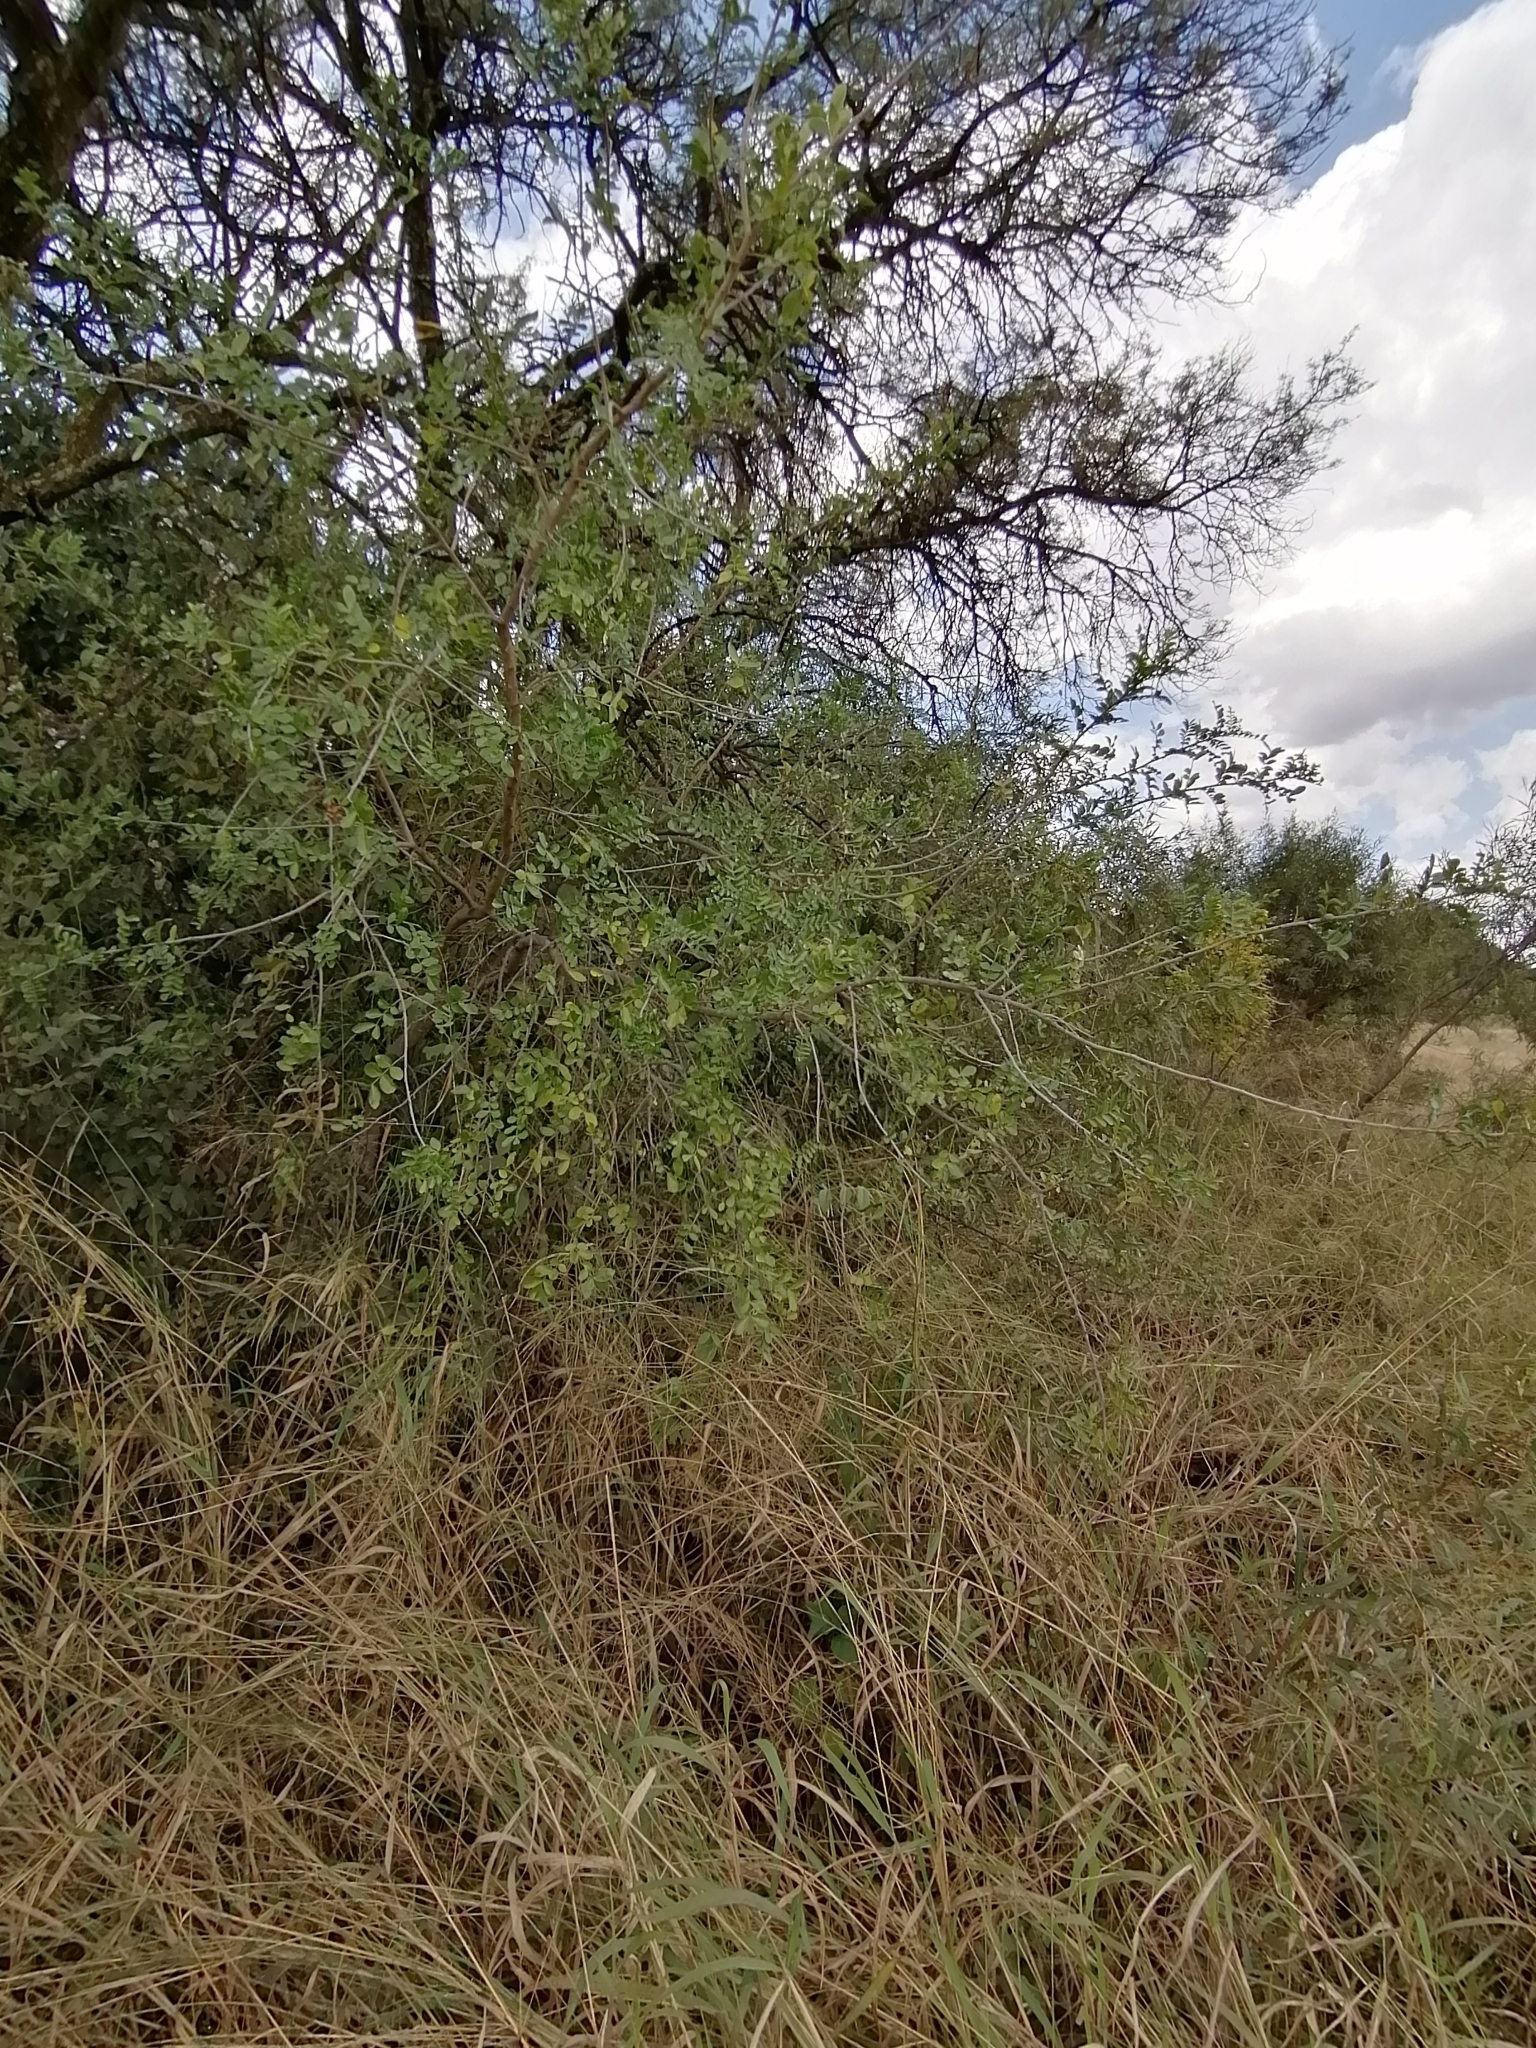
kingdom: Plantae
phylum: Tracheophyta
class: Magnoliopsida
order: Sapindales
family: Rutaceae
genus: Zanthoxylum
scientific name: Zanthoxylum capense
